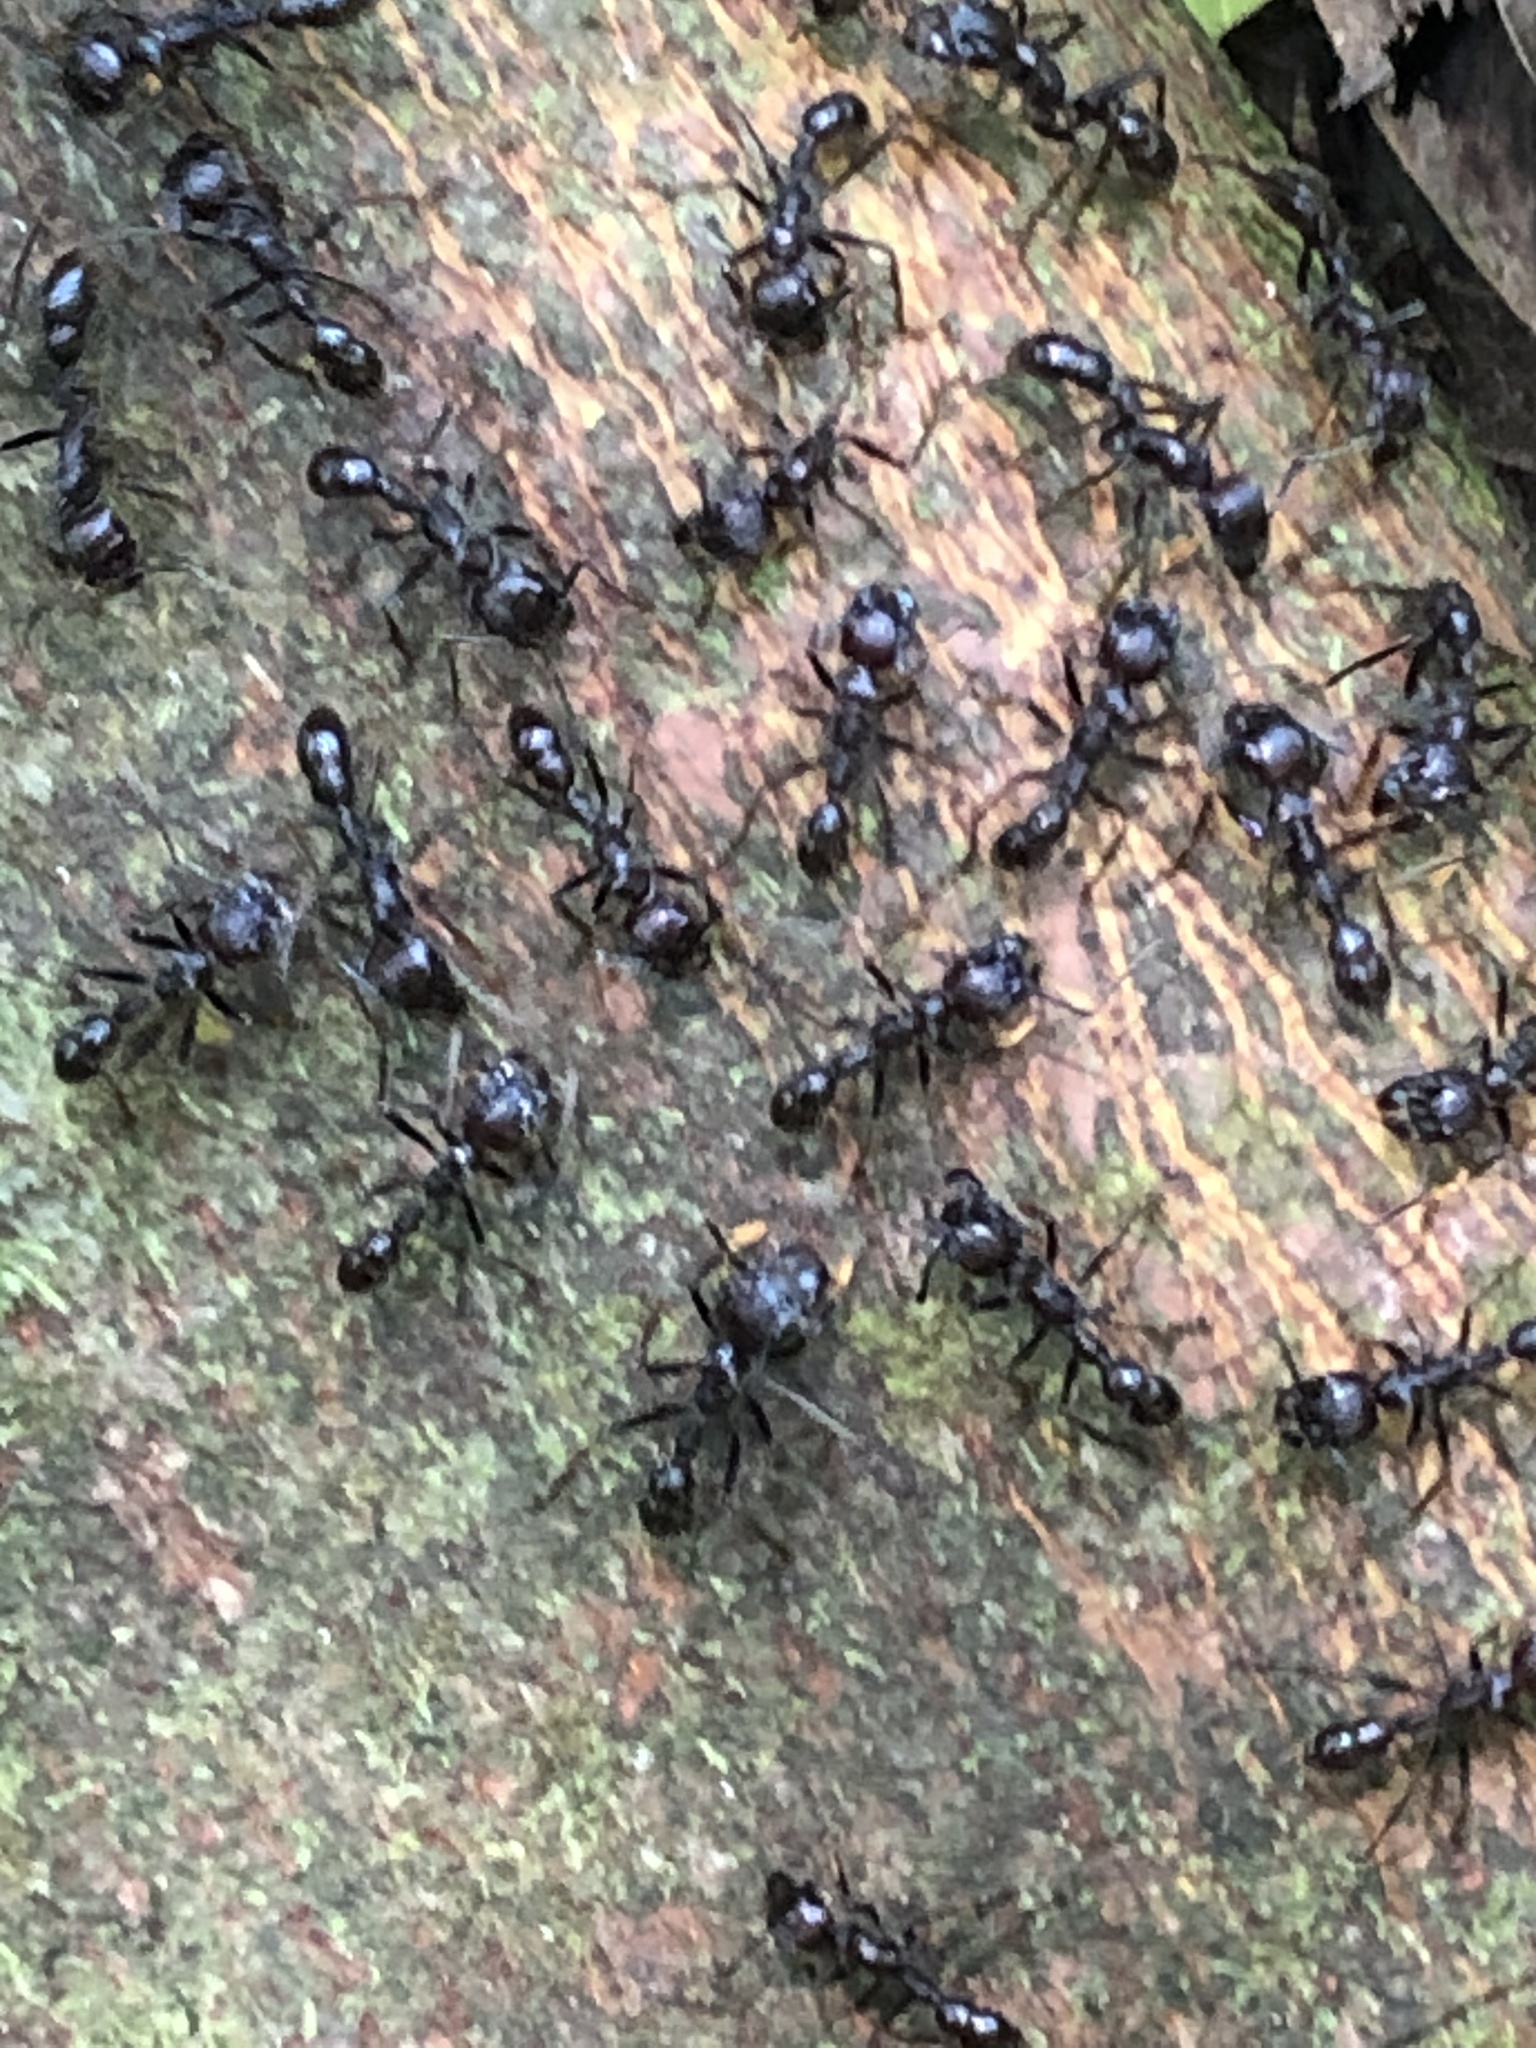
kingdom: Animalia
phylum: Arthropoda
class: Insecta
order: Hymenoptera
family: Formicidae
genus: Paraponera
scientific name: Paraponera clavata
